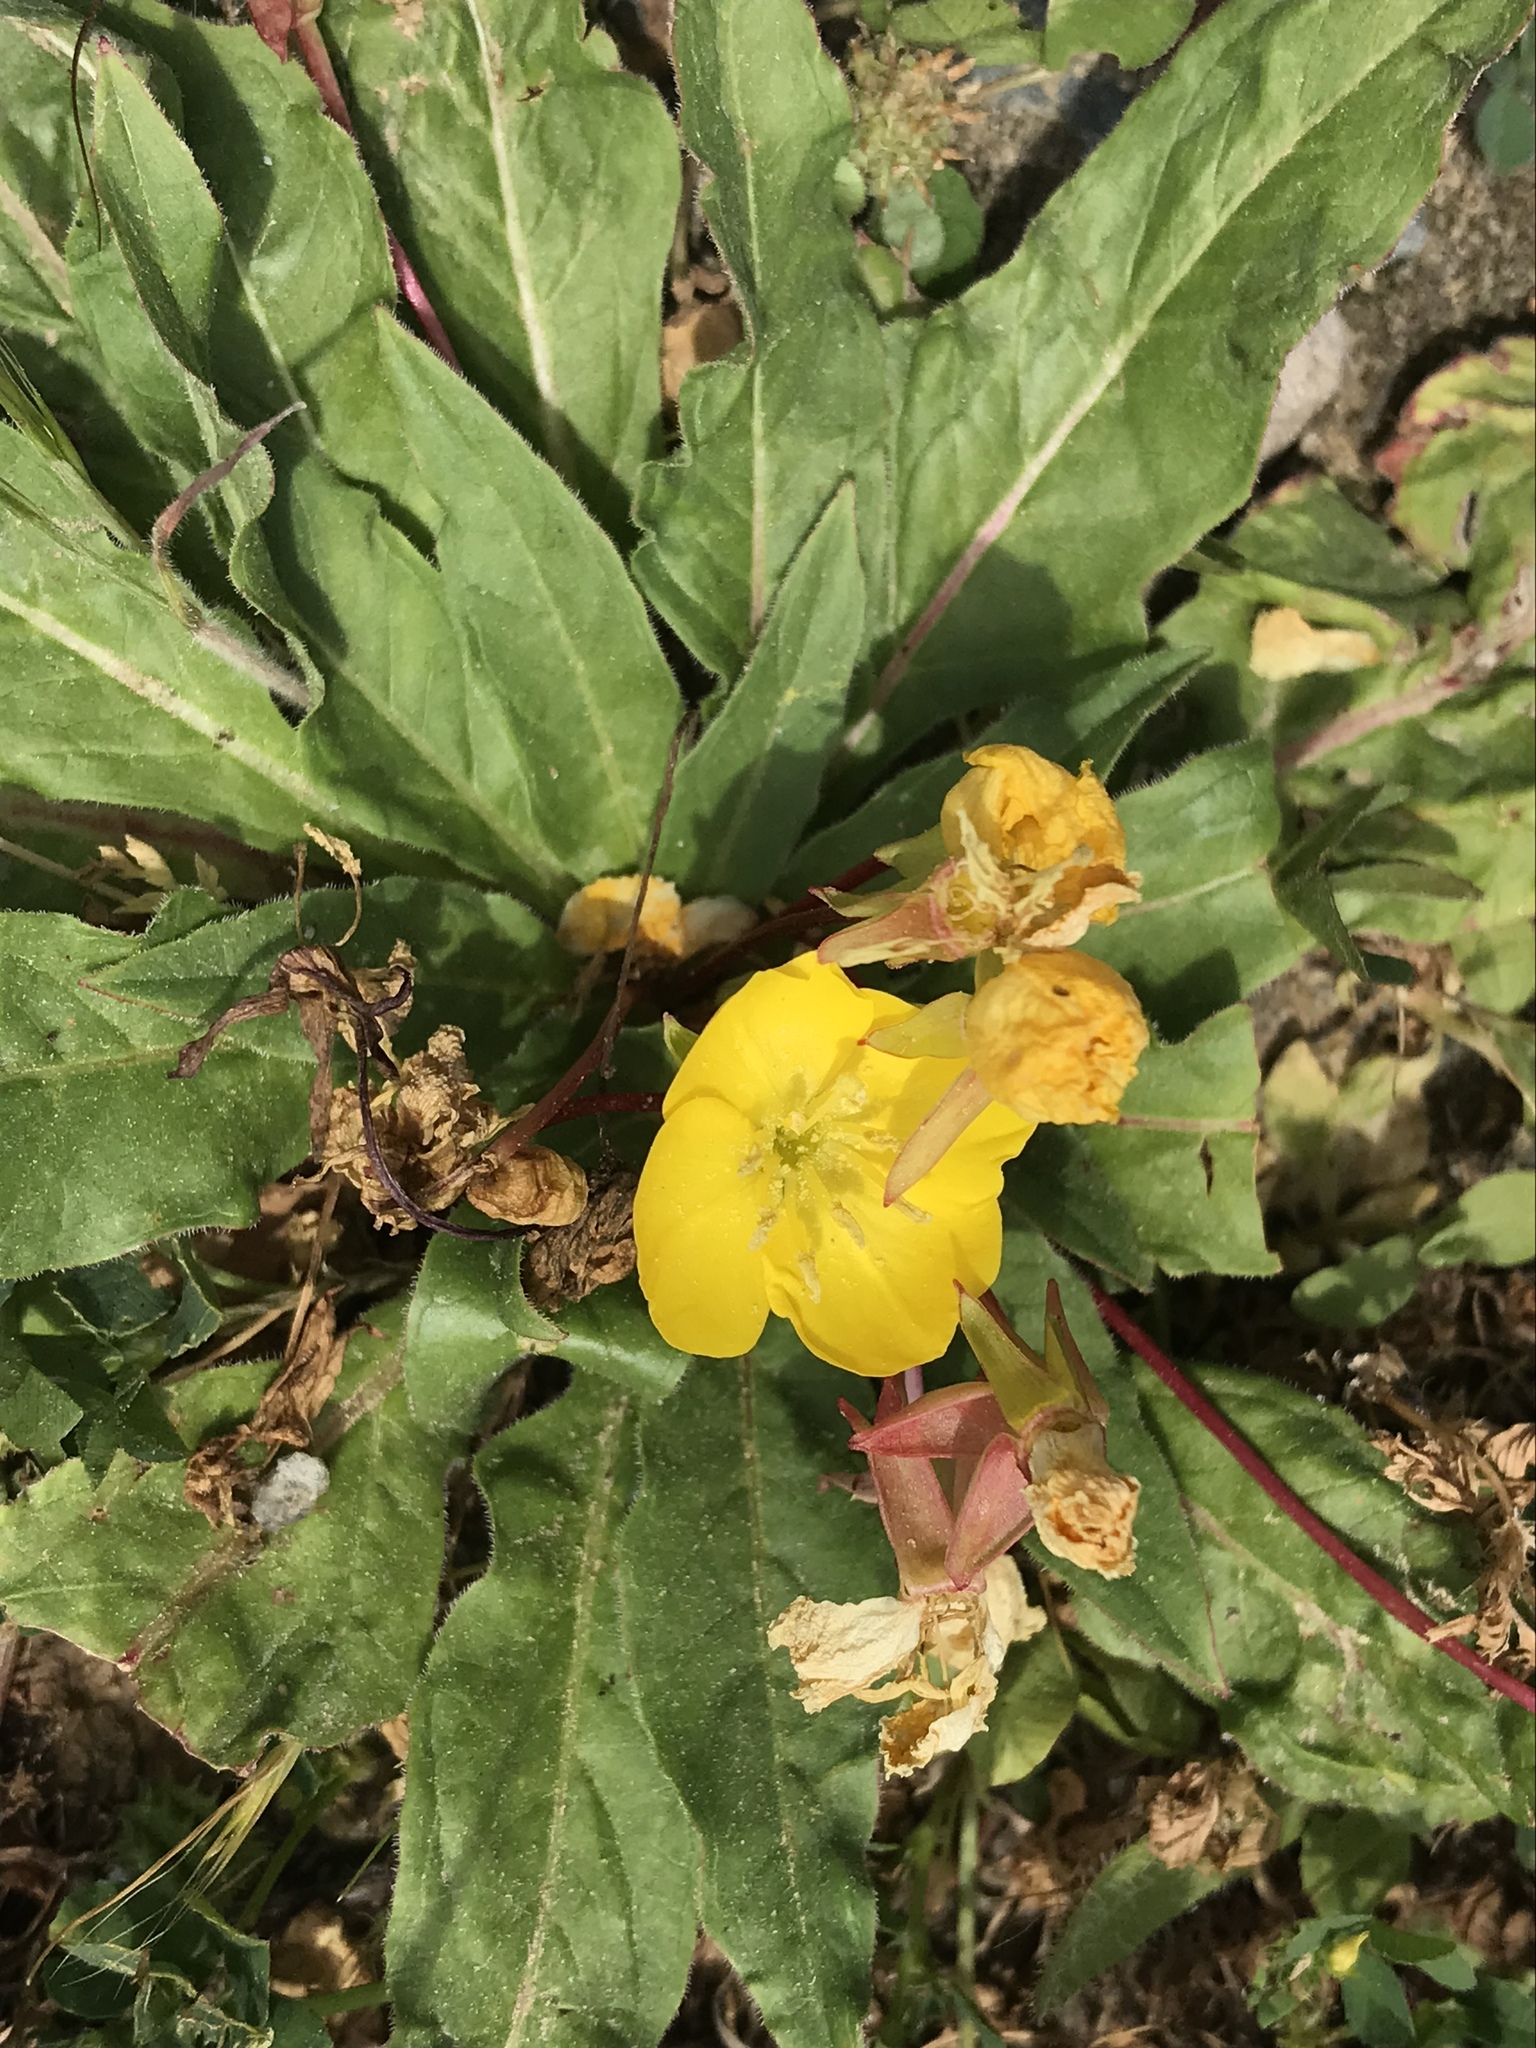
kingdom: Plantae
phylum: Tracheophyta
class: Magnoliopsida
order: Myrtales
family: Onagraceae
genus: Taraxia
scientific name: Taraxia ovata
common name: Goldeneggs
